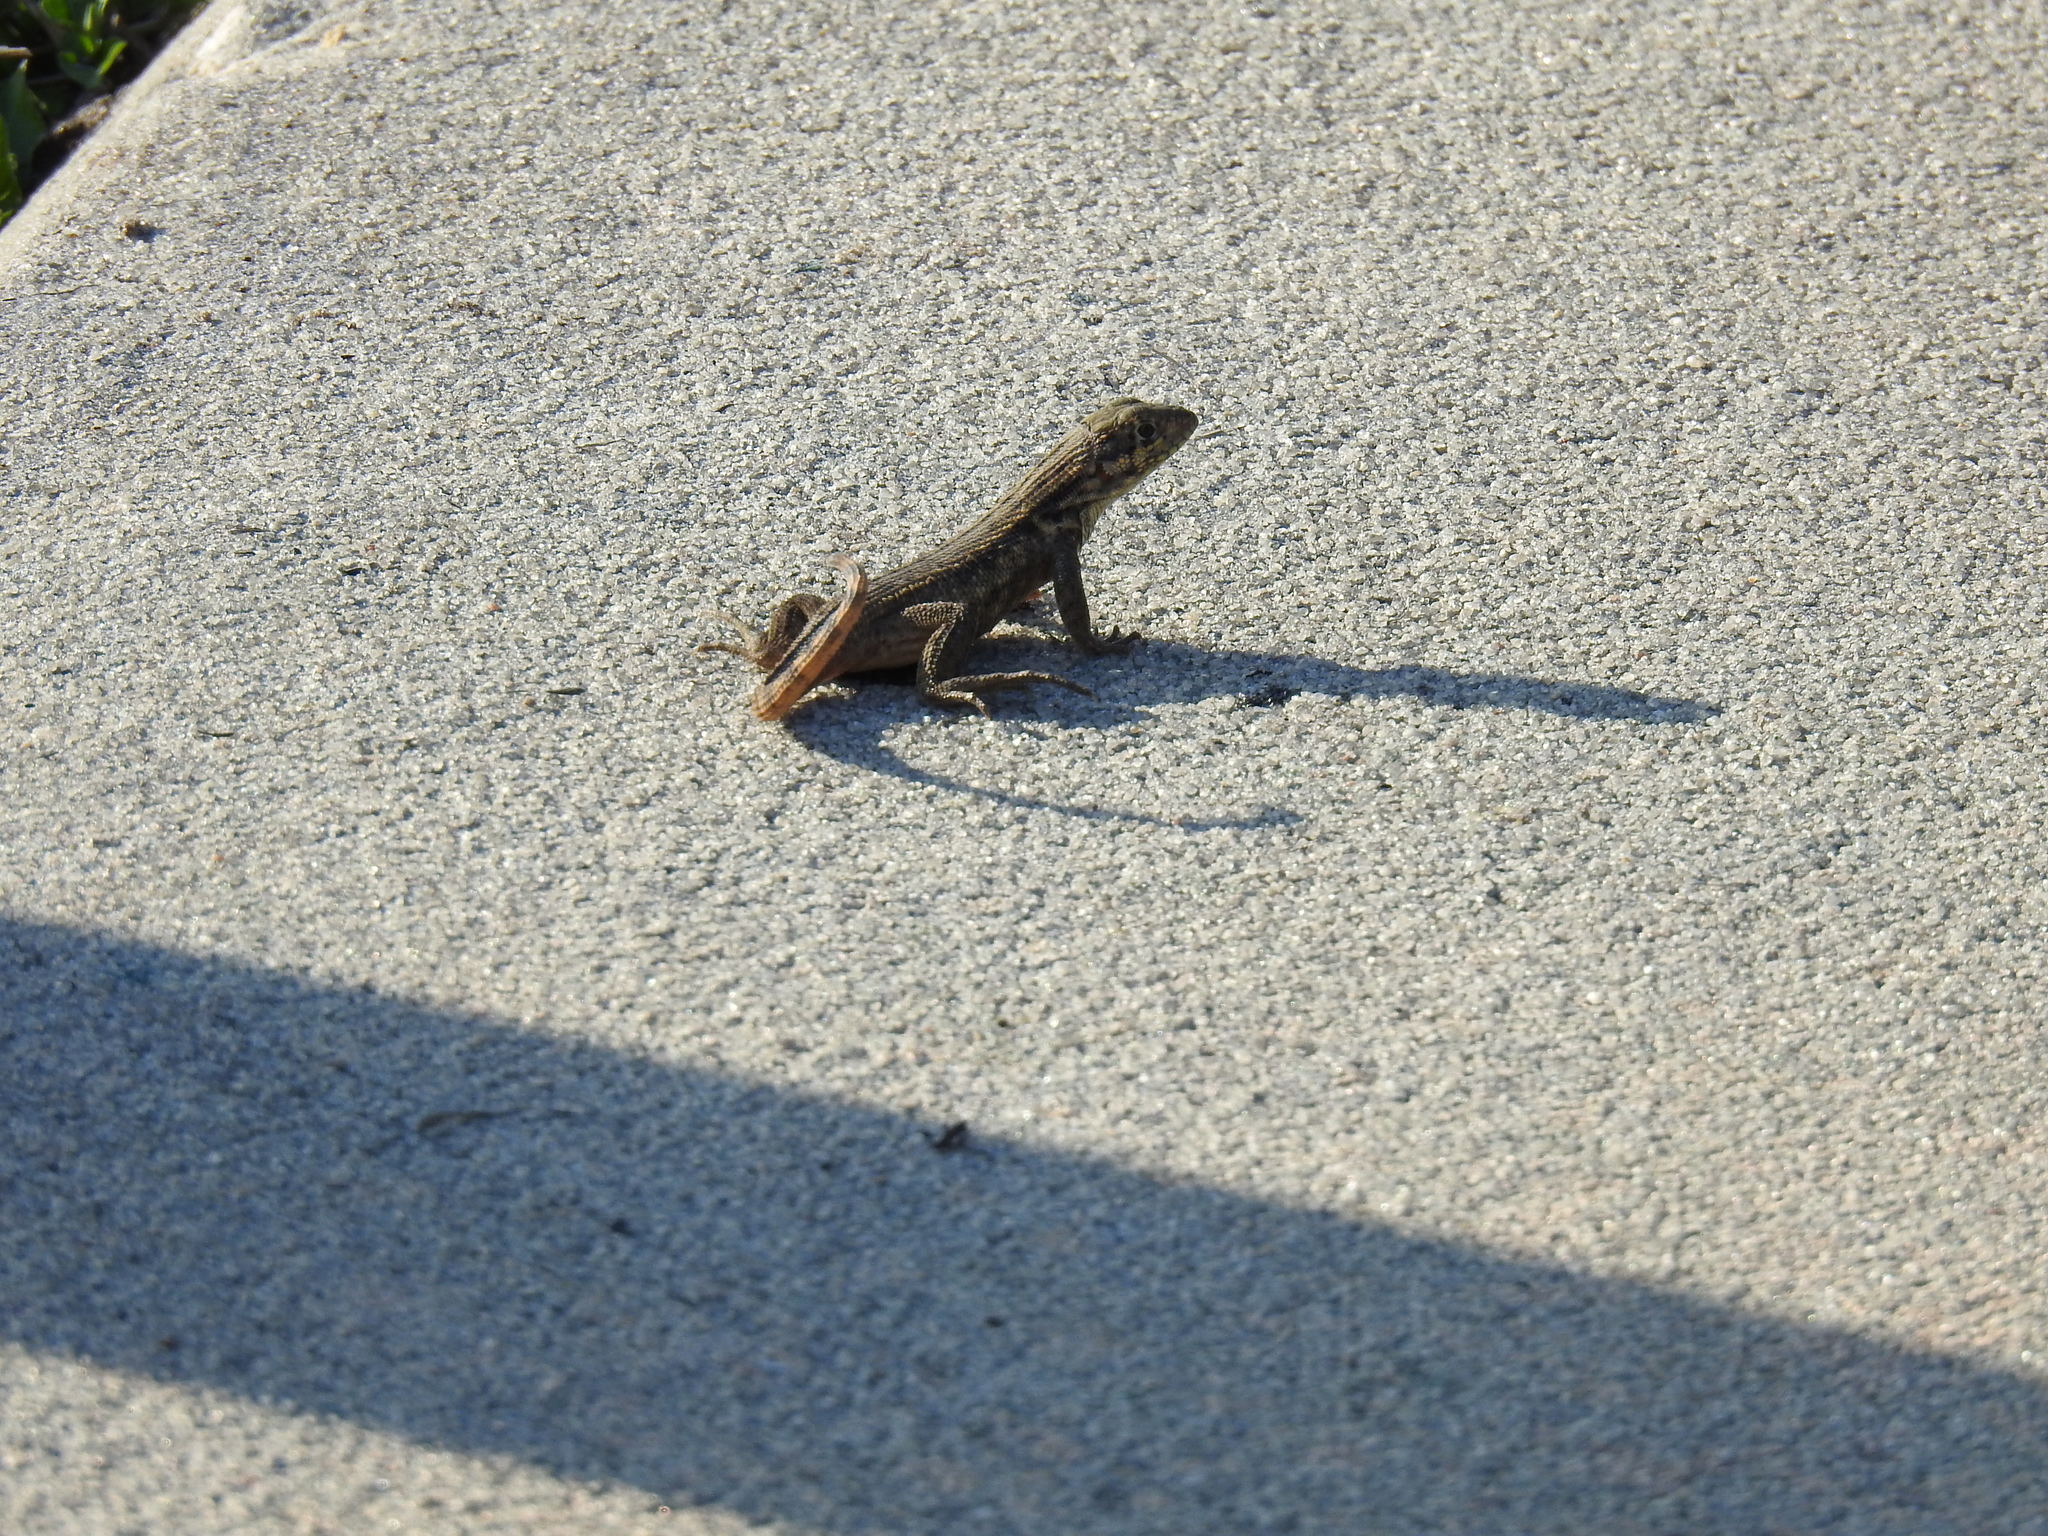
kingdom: Animalia
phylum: Chordata
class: Squamata
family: Leiocephalidae
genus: Leiocephalus
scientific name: Leiocephalus carinatus
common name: Northern curly-tailed lizard
